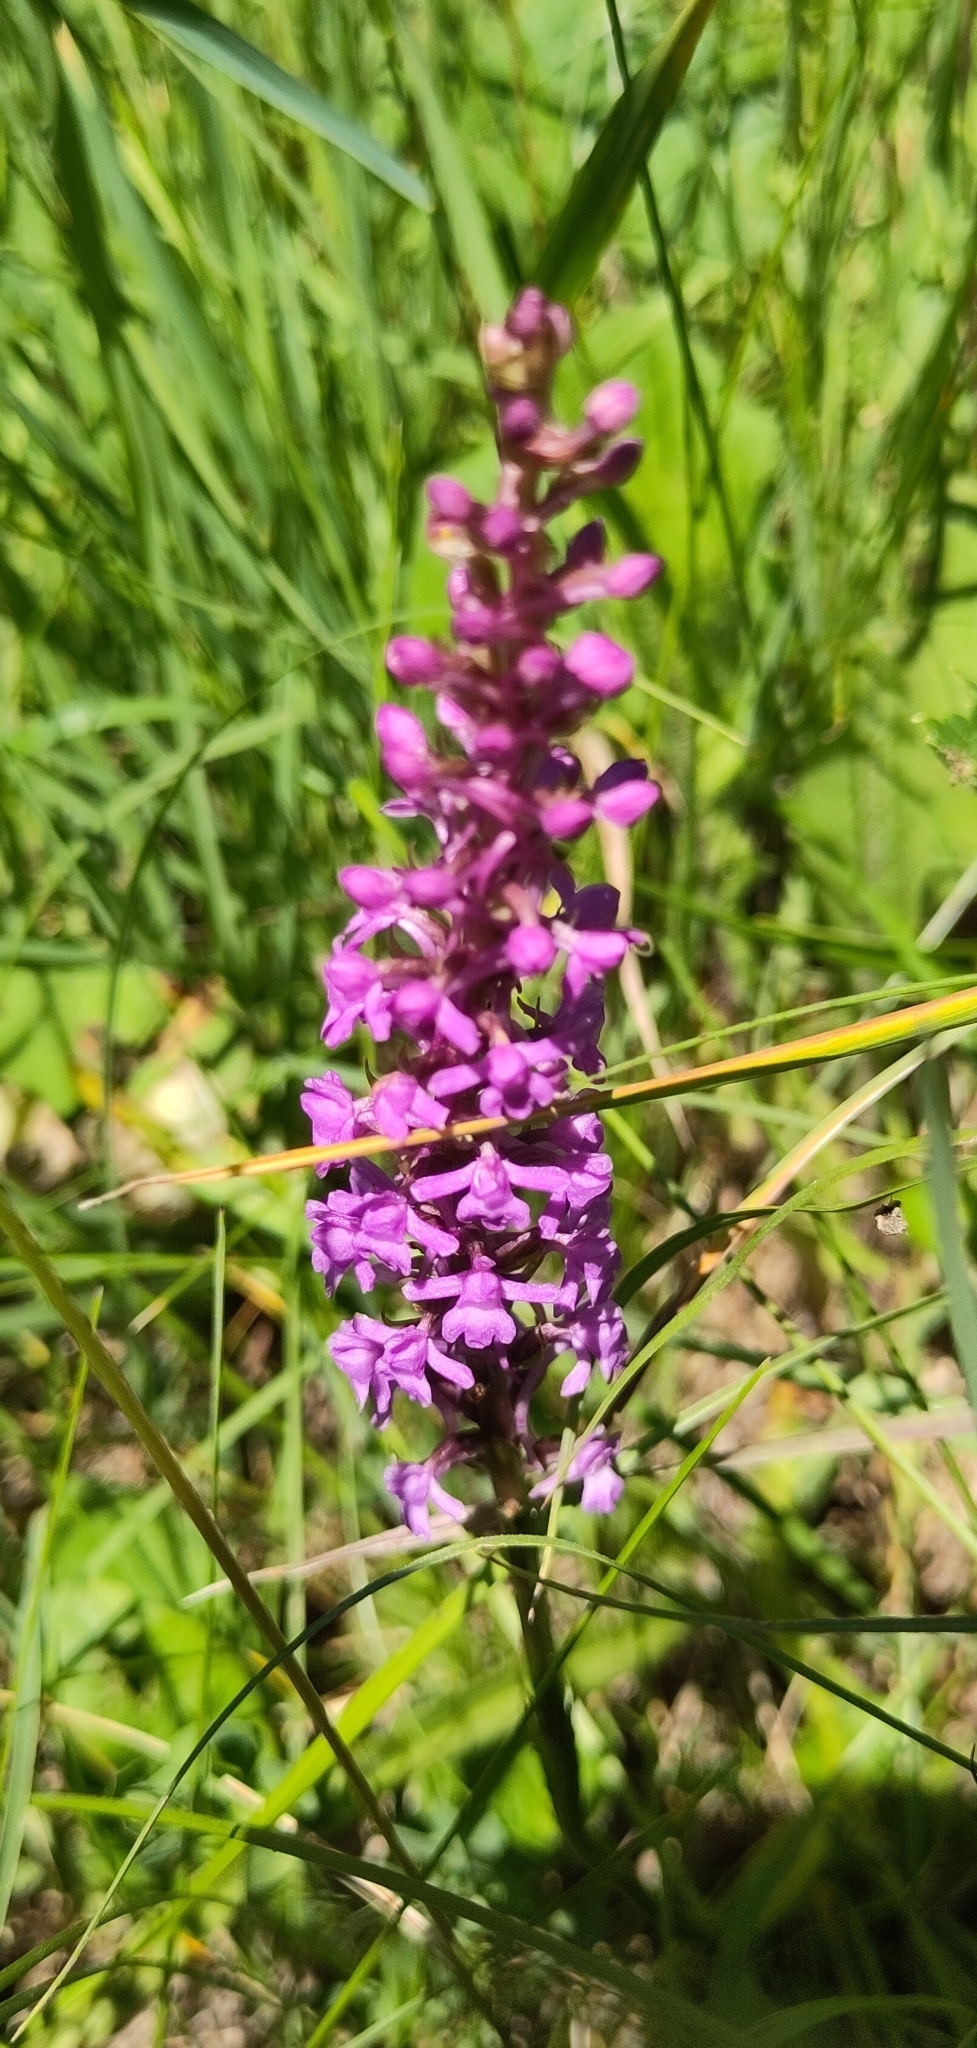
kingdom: Plantae
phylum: Tracheophyta
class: Liliopsida
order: Asparagales
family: Orchidaceae
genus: Gymnadenia
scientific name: Gymnadenia conopsea
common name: Fragrant orchid
